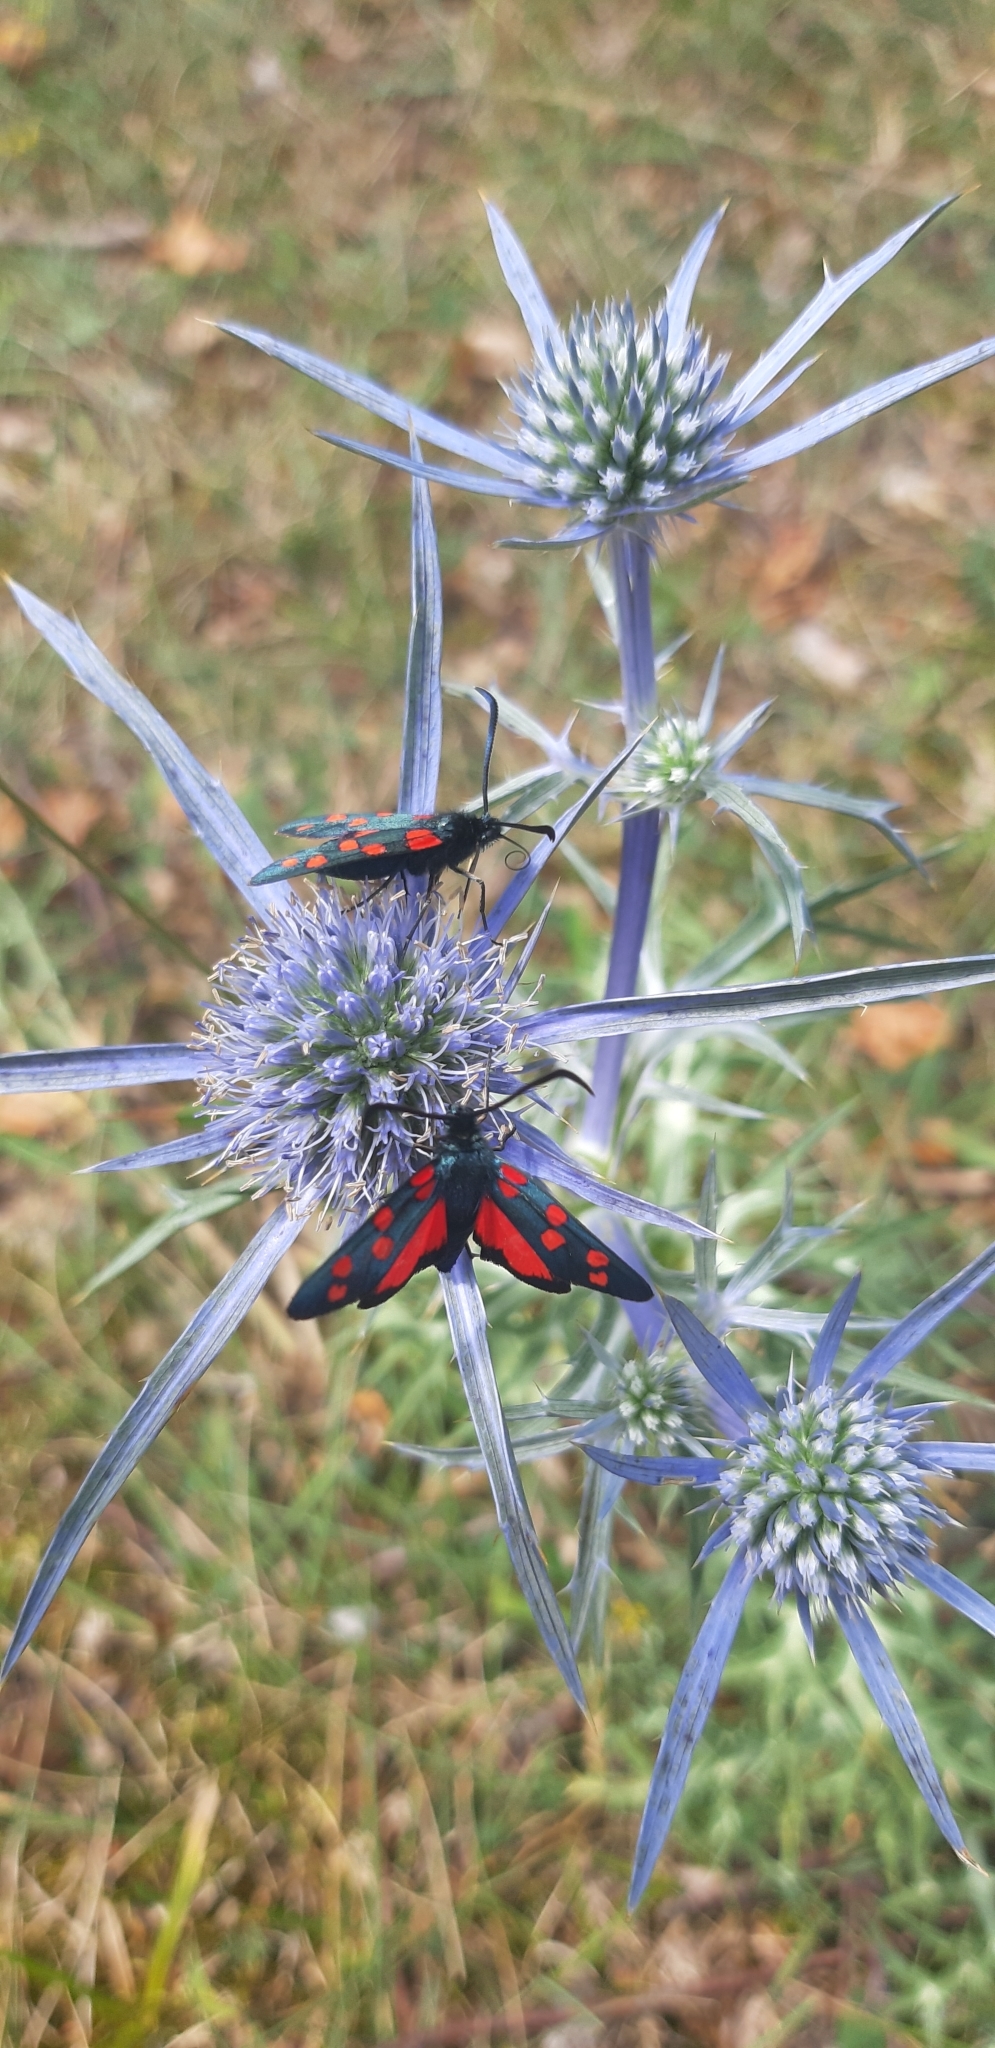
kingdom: Animalia
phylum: Arthropoda
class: Insecta
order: Lepidoptera
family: Zygaenidae
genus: Zygaena
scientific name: Zygaena transalpina
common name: Southern six spot burnet
